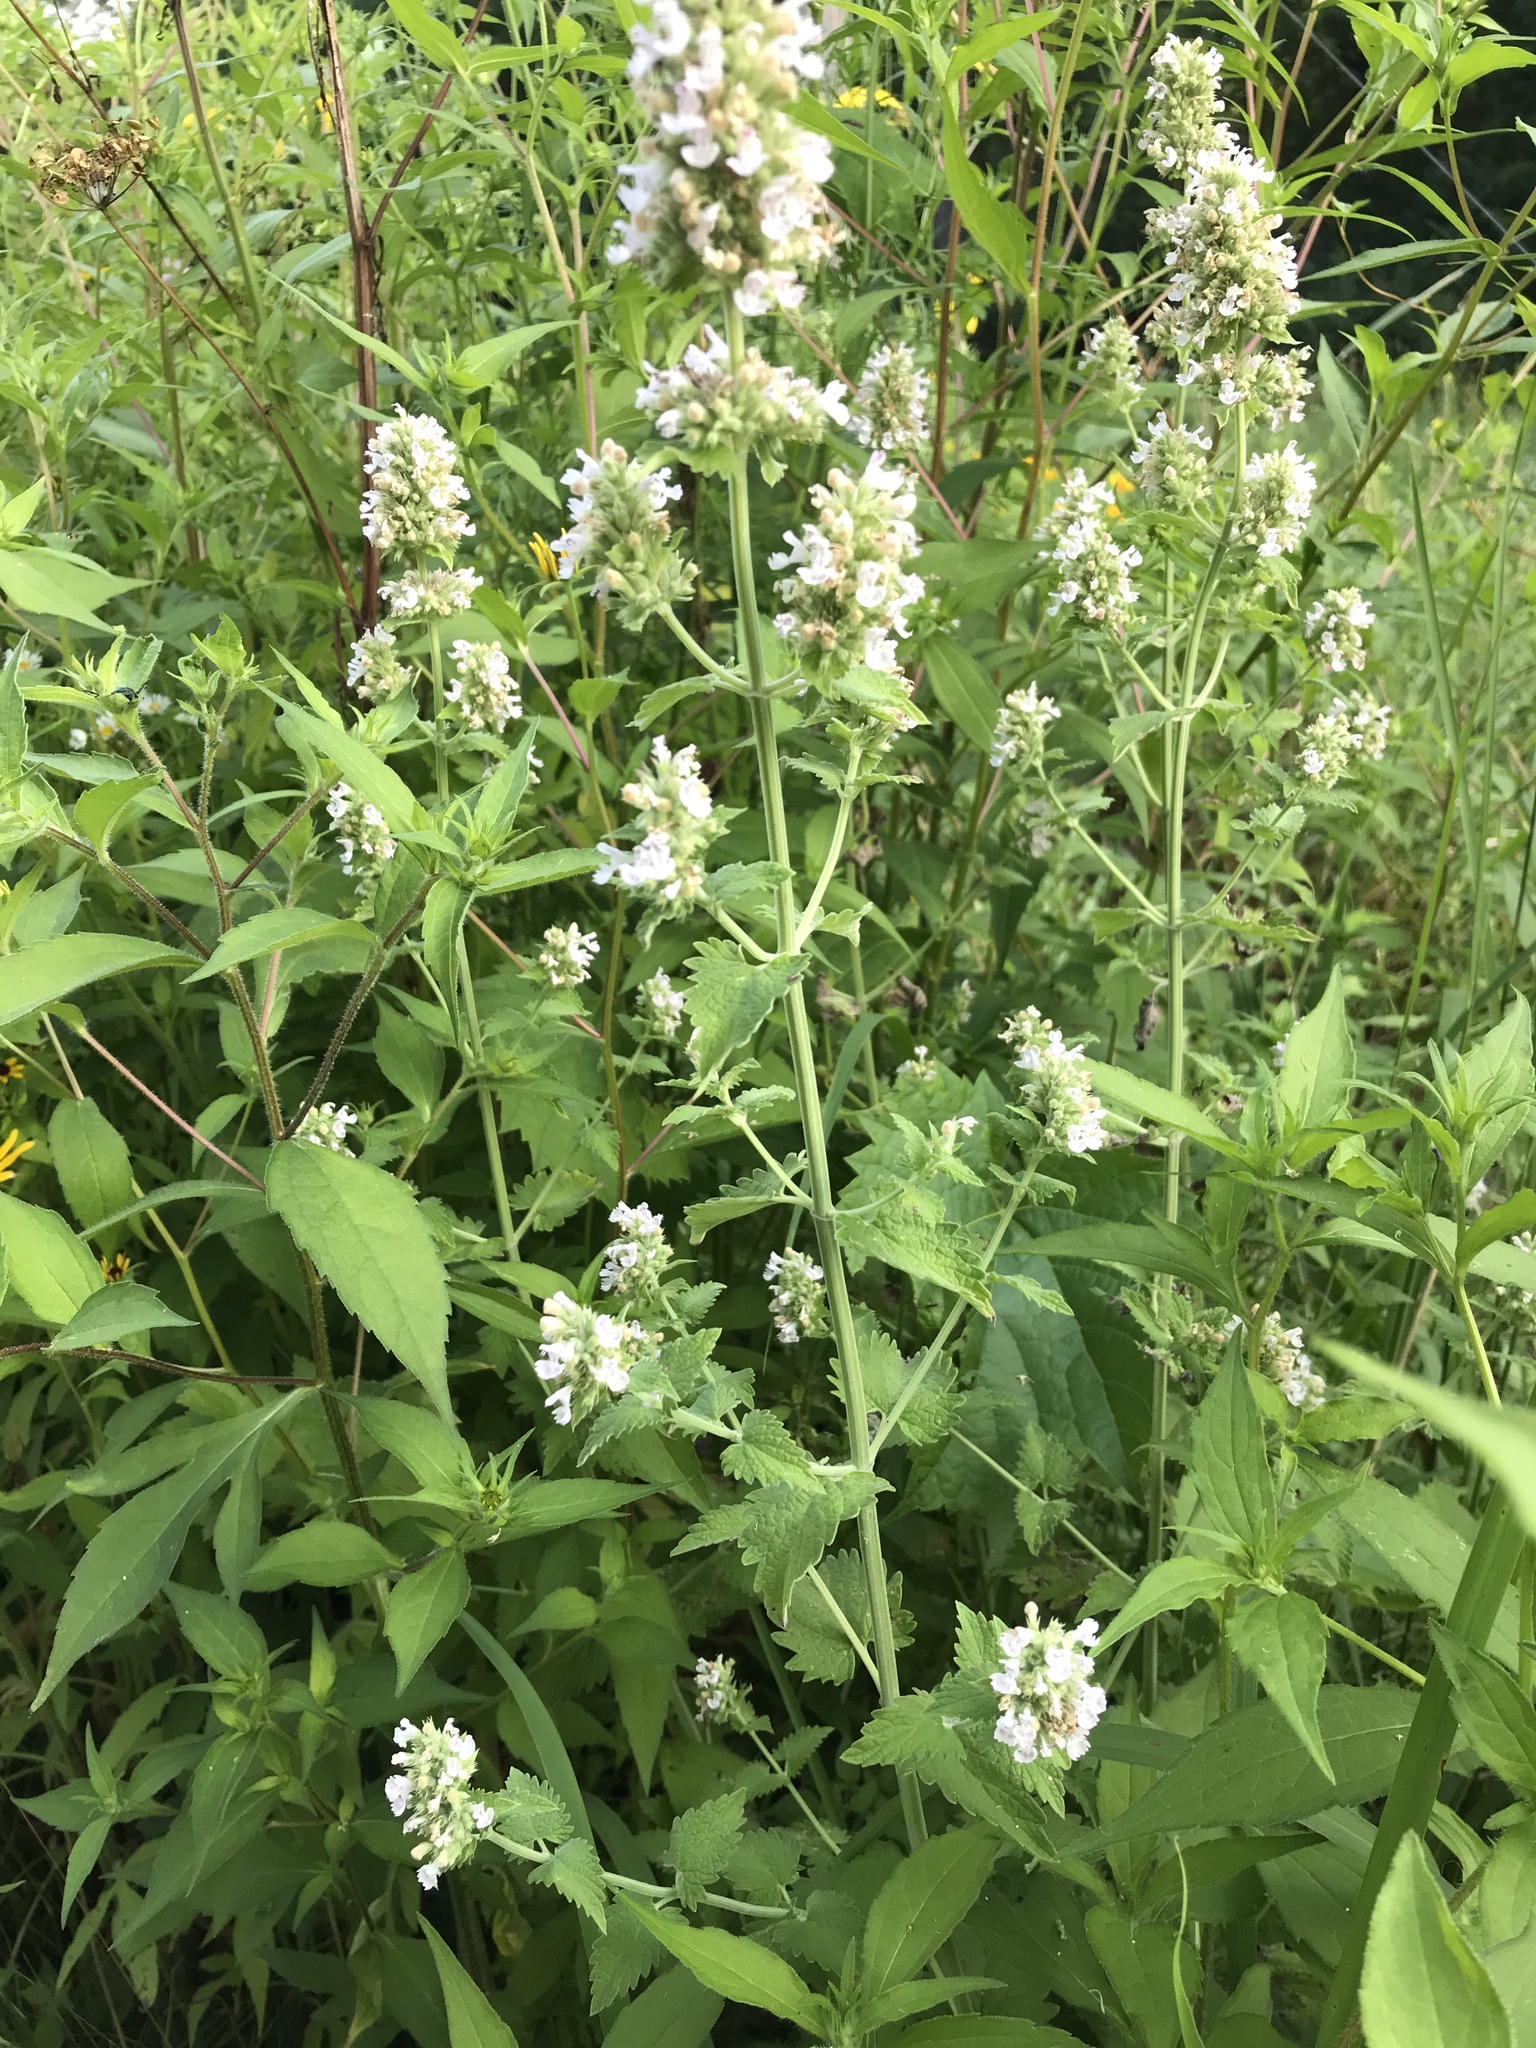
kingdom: Plantae
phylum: Tracheophyta
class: Magnoliopsida
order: Lamiales
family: Lamiaceae
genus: Nepeta
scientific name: Nepeta cataria
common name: Catnip
